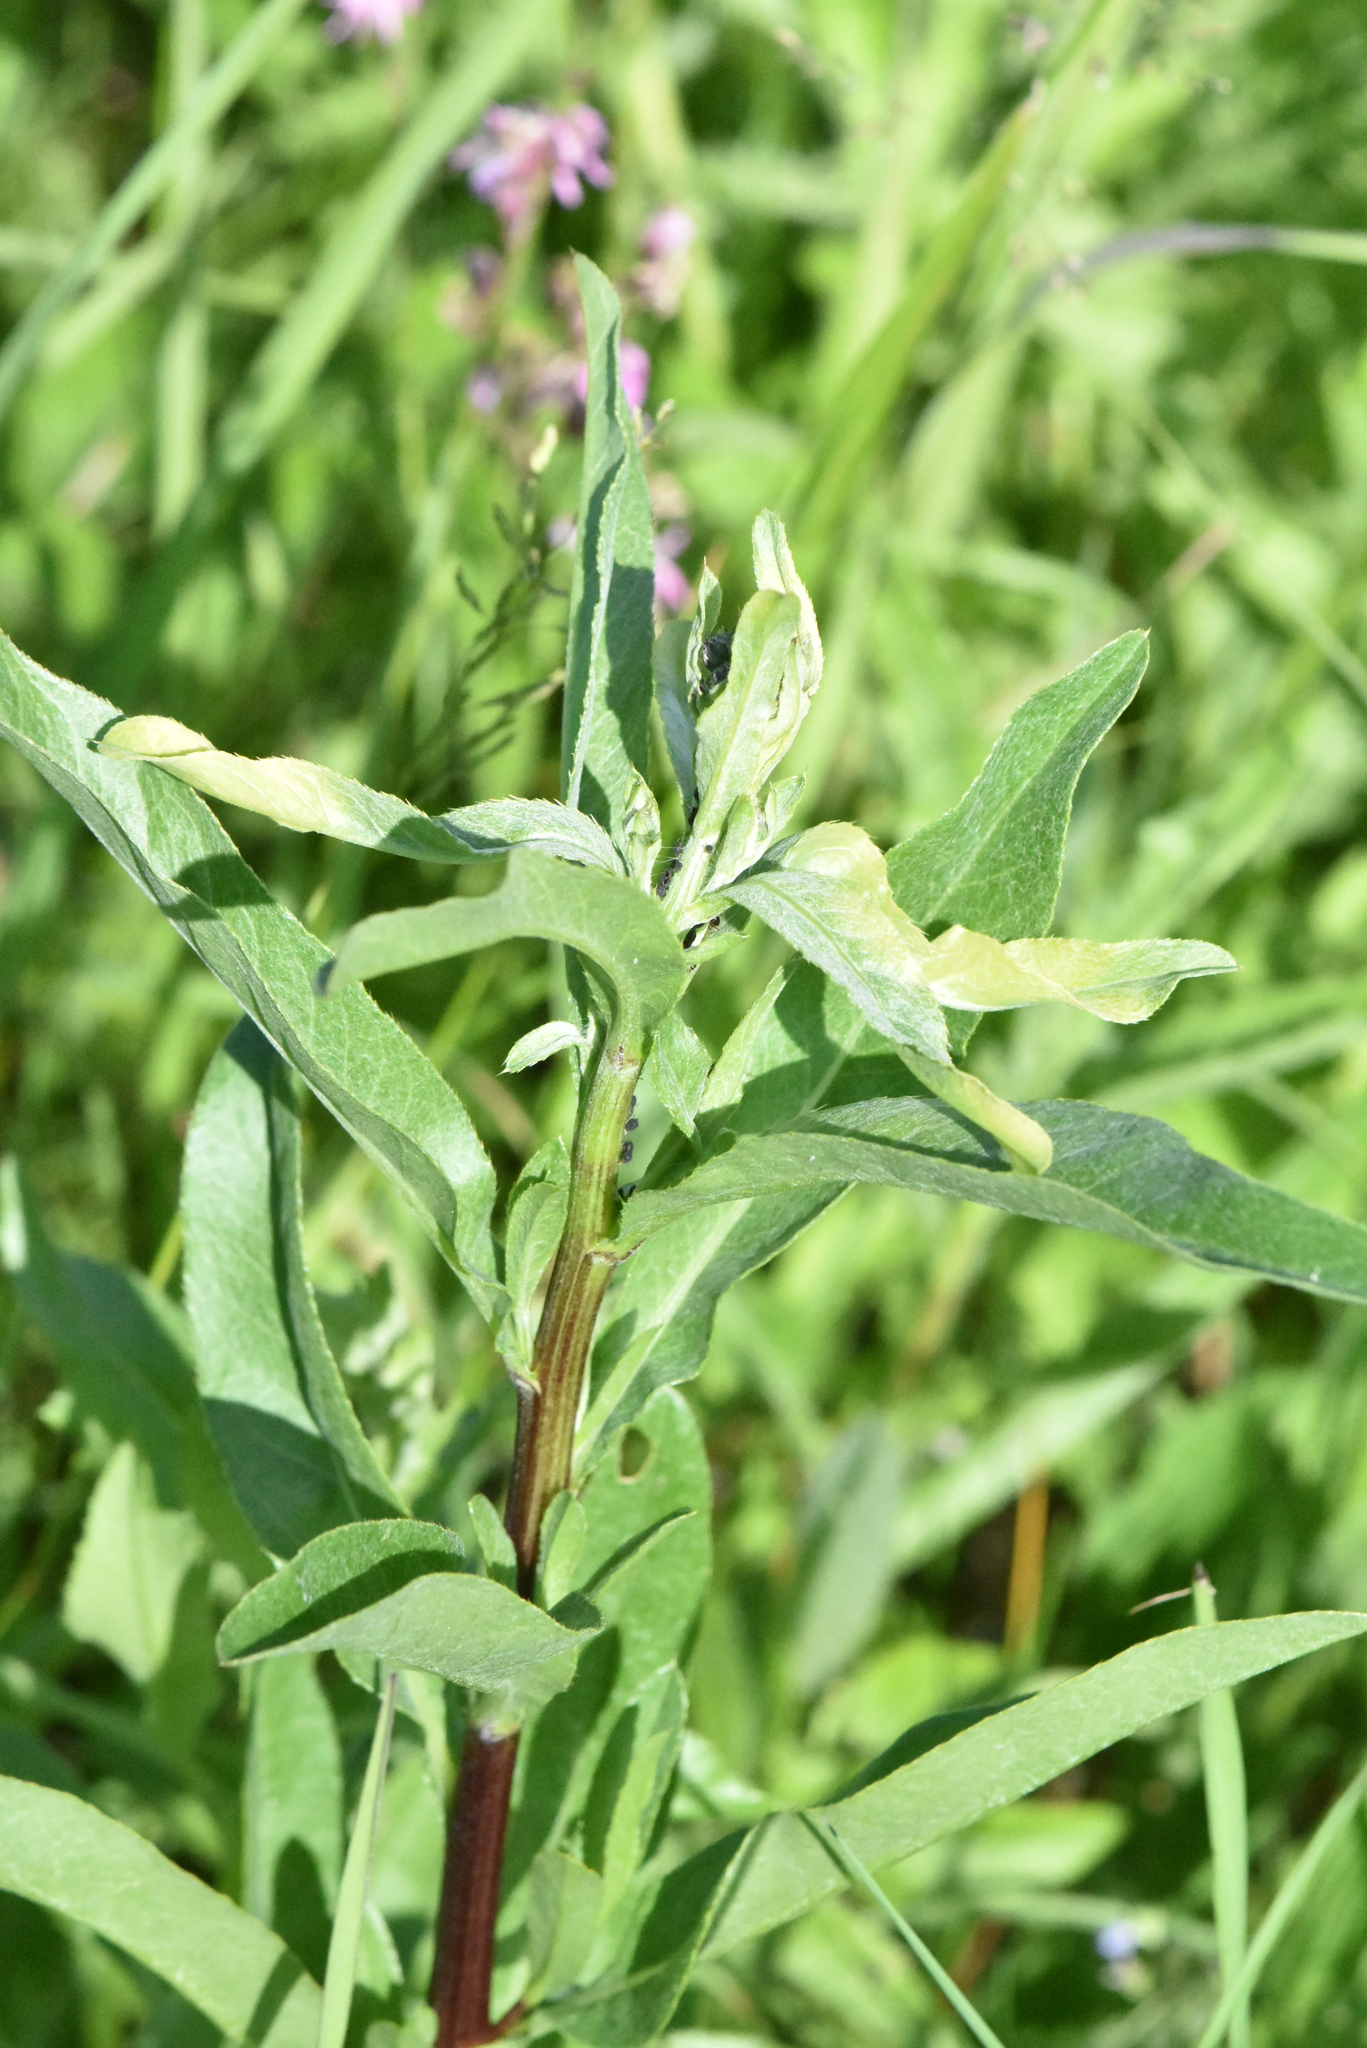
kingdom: Plantae
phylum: Tracheophyta
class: Magnoliopsida
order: Asterales
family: Asteraceae
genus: Cirsium
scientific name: Cirsium arvense
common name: Creeping thistle
